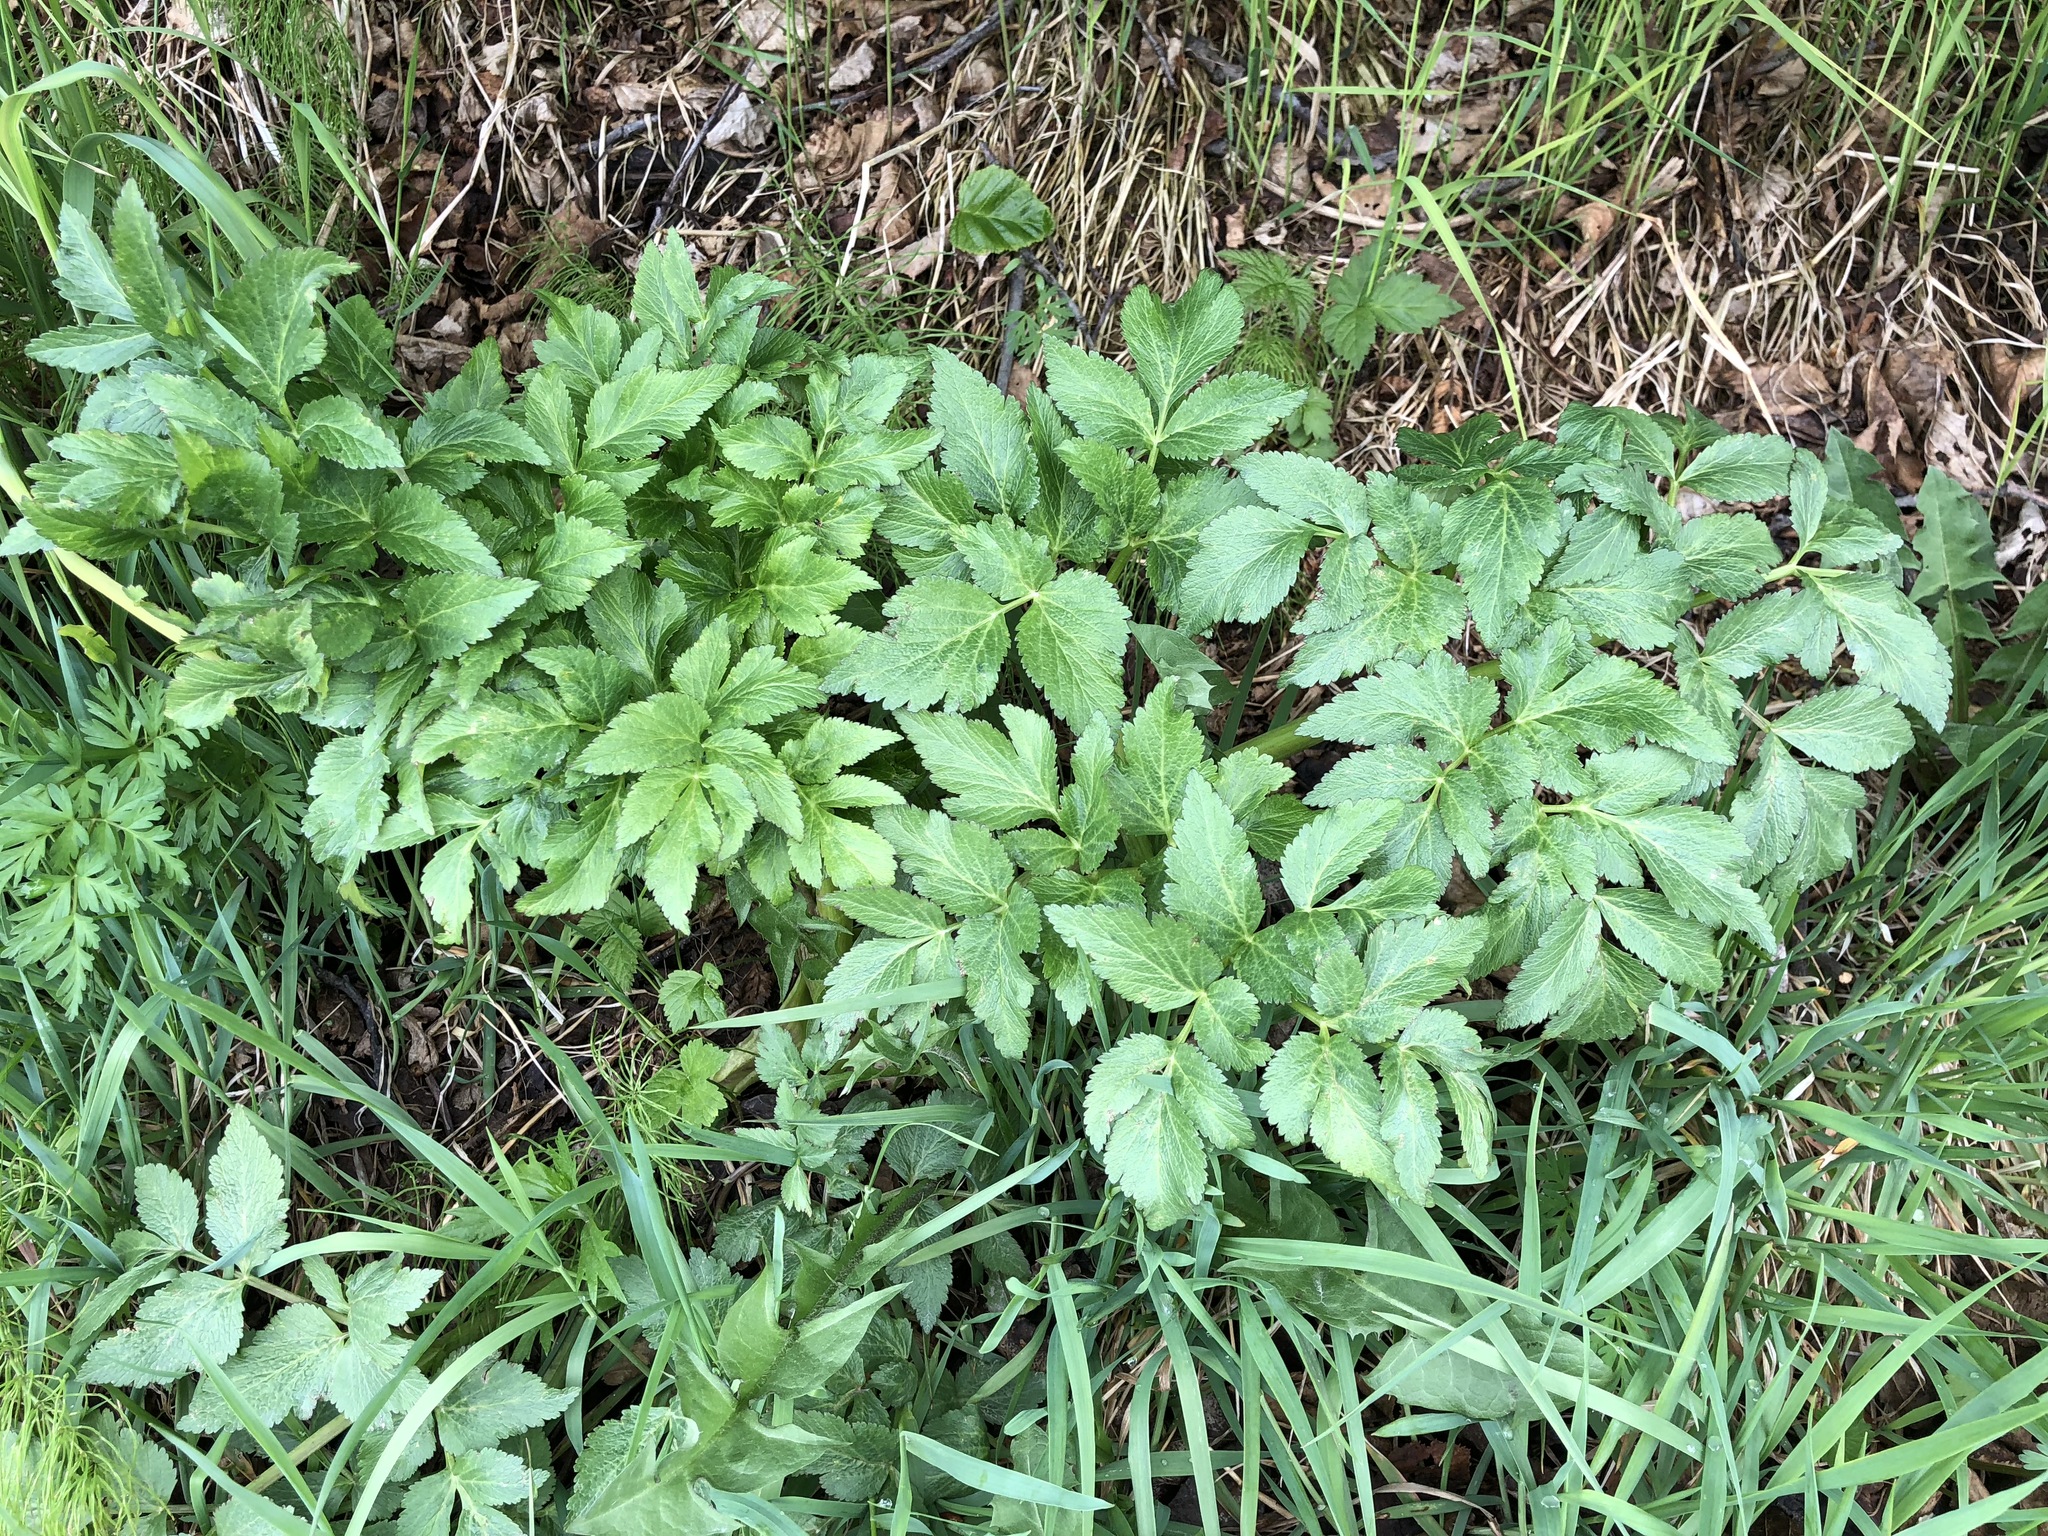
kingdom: Plantae
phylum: Tracheophyta
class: Magnoliopsida
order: Apiales
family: Apiaceae
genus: Angelica
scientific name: Angelica lucida
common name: Seabeach angelica
